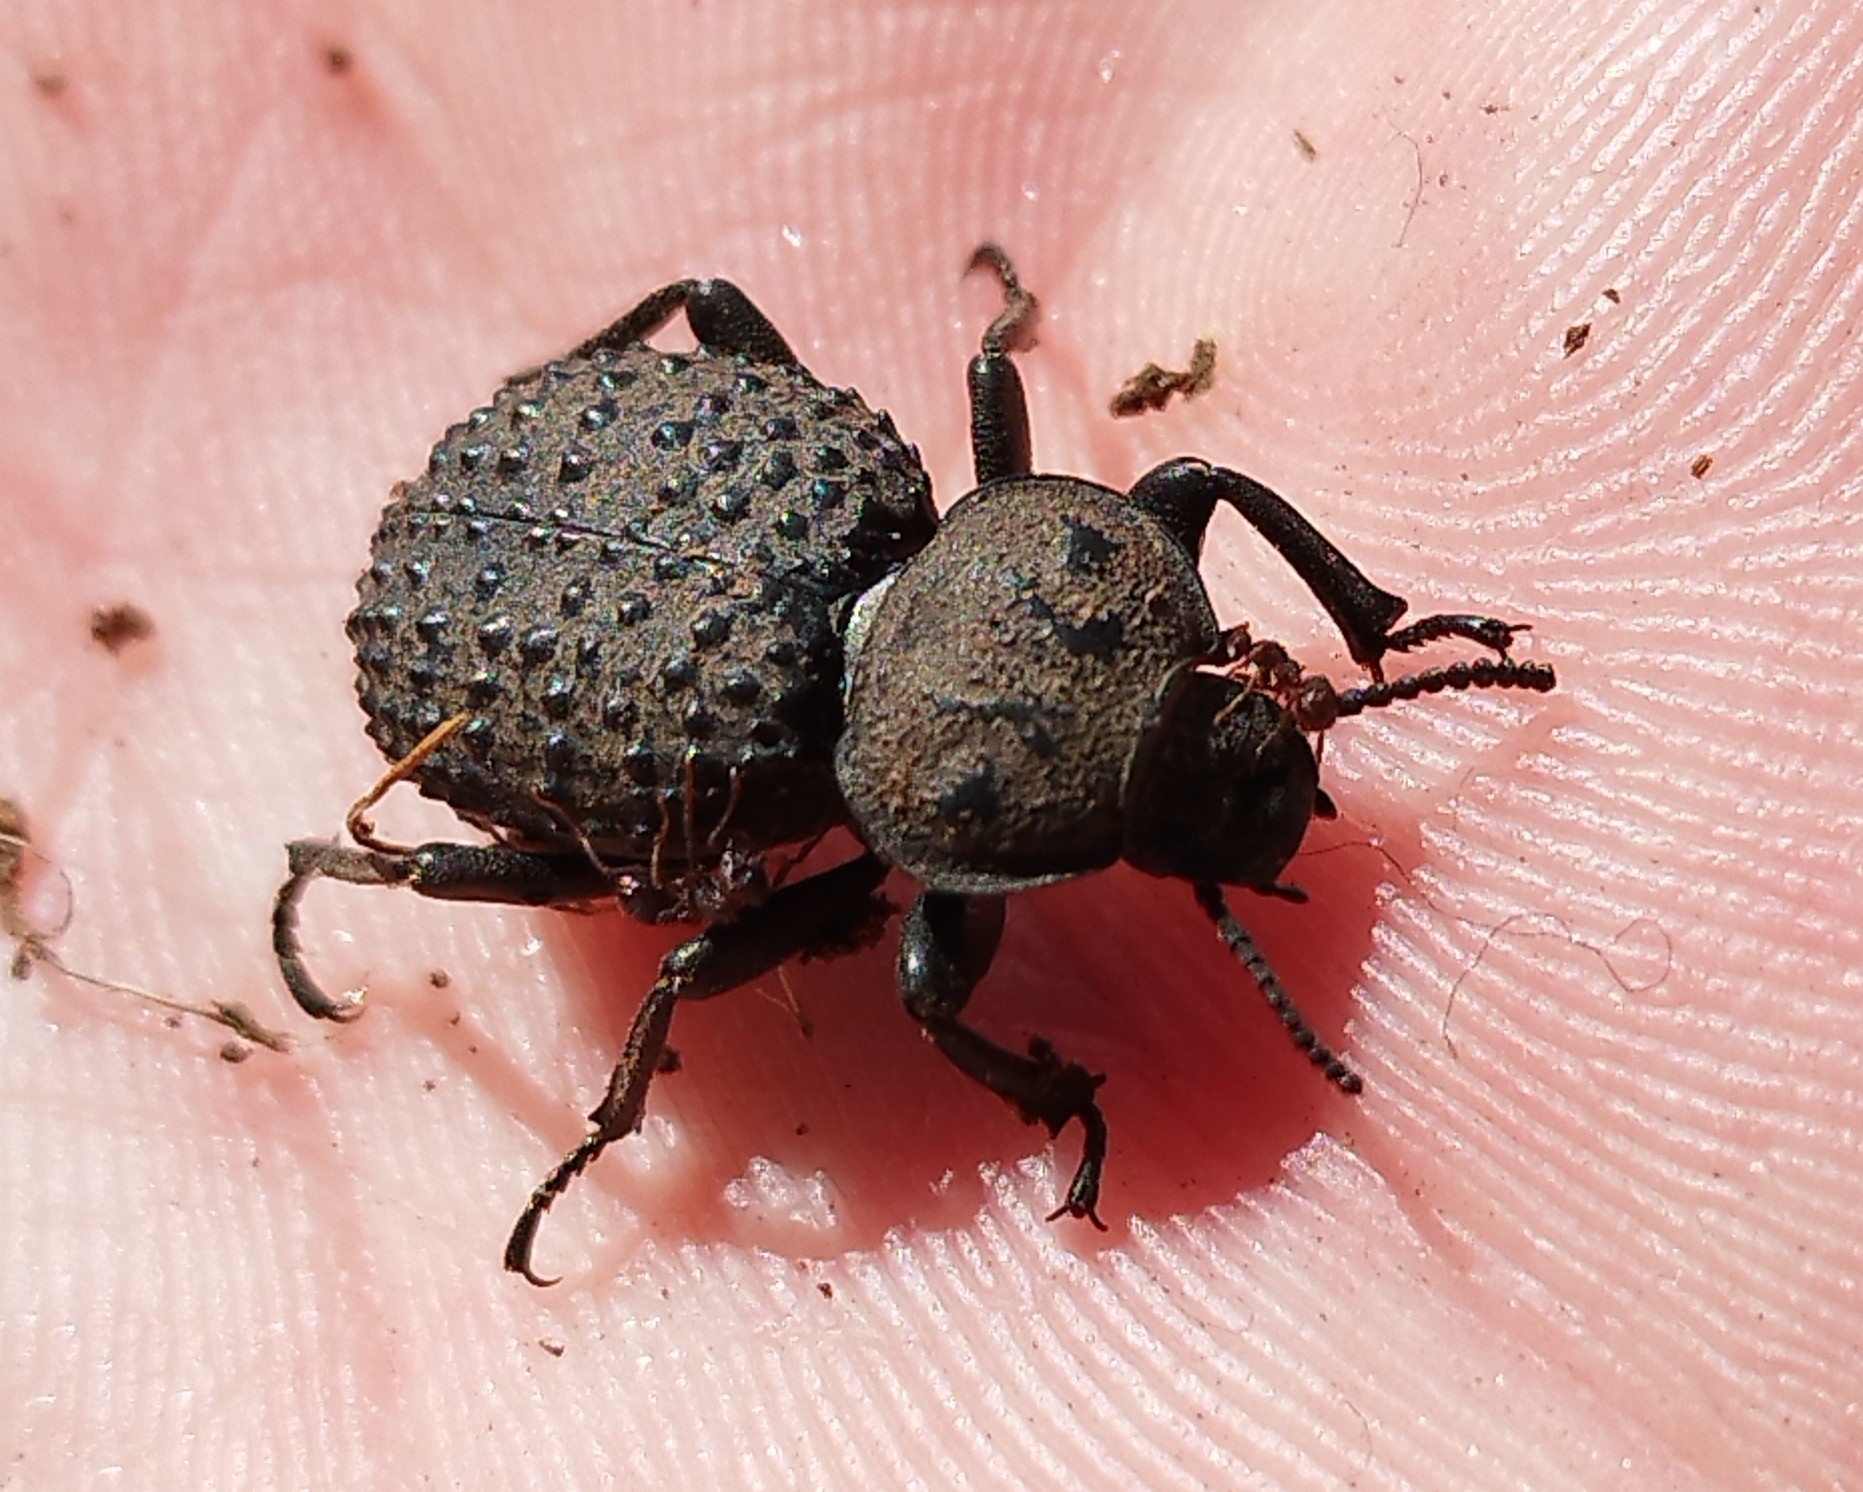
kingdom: Animalia
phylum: Arthropoda
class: Insecta
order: Coleoptera
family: Tenebrionidae
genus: Scotobius
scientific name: Scotobius pilularius
